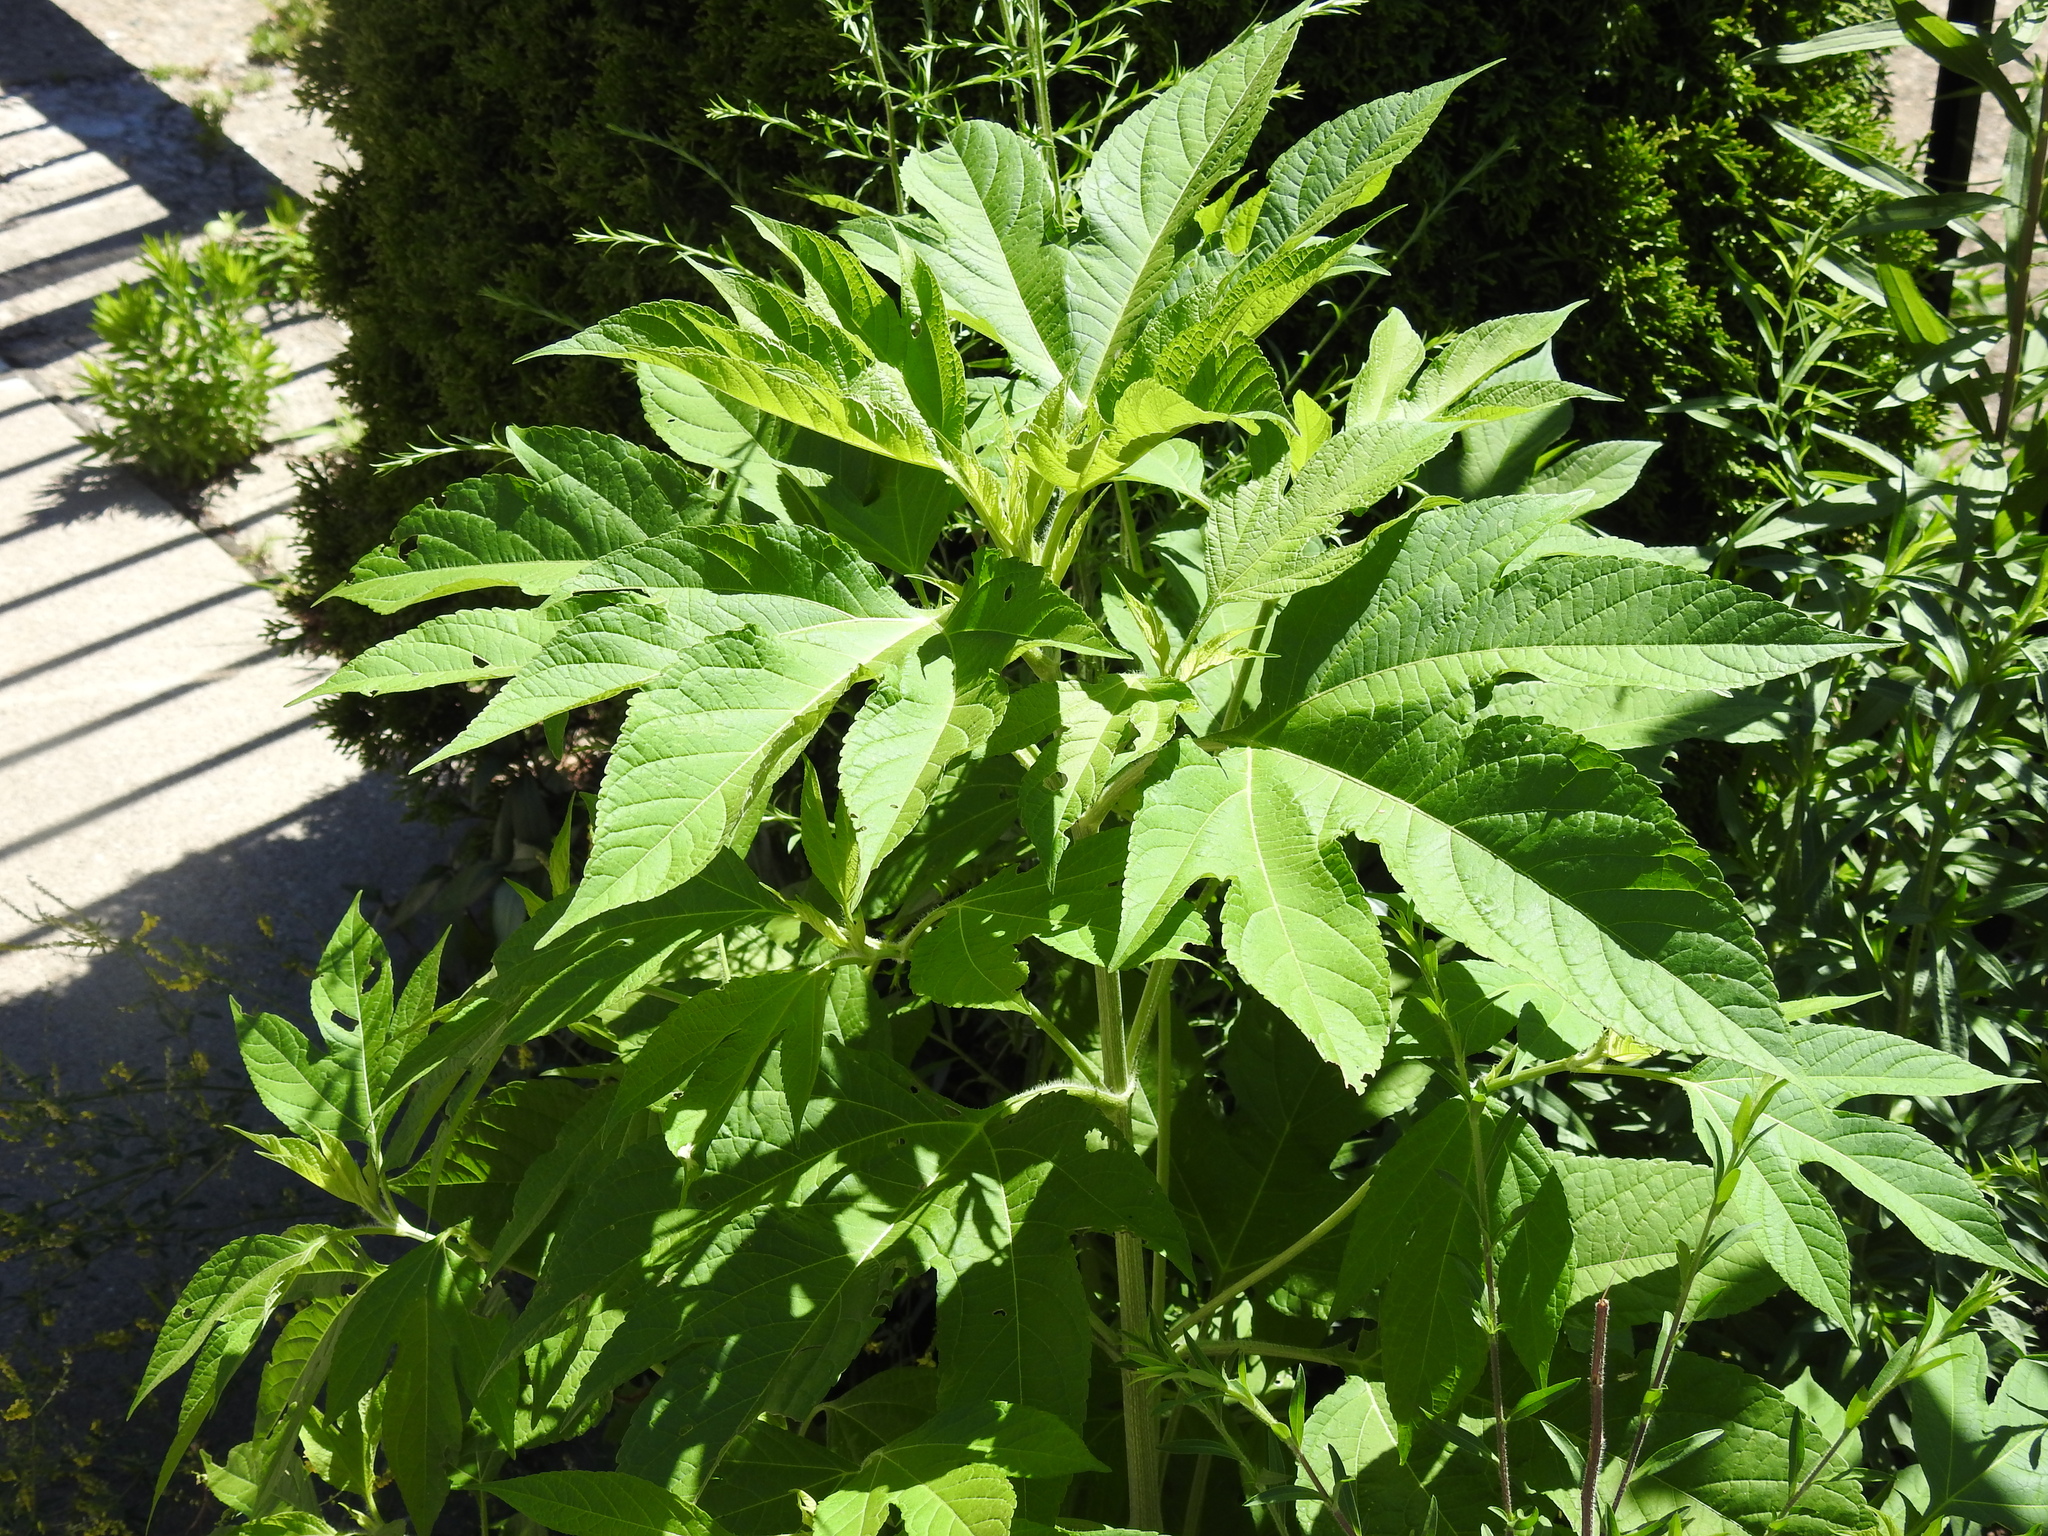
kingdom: Plantae
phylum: Tracheophyta
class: Magnoliopsida
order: Asterales
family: Asteraceae
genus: Ambrosia
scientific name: Ambrosia trifida
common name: Giant ragweed
